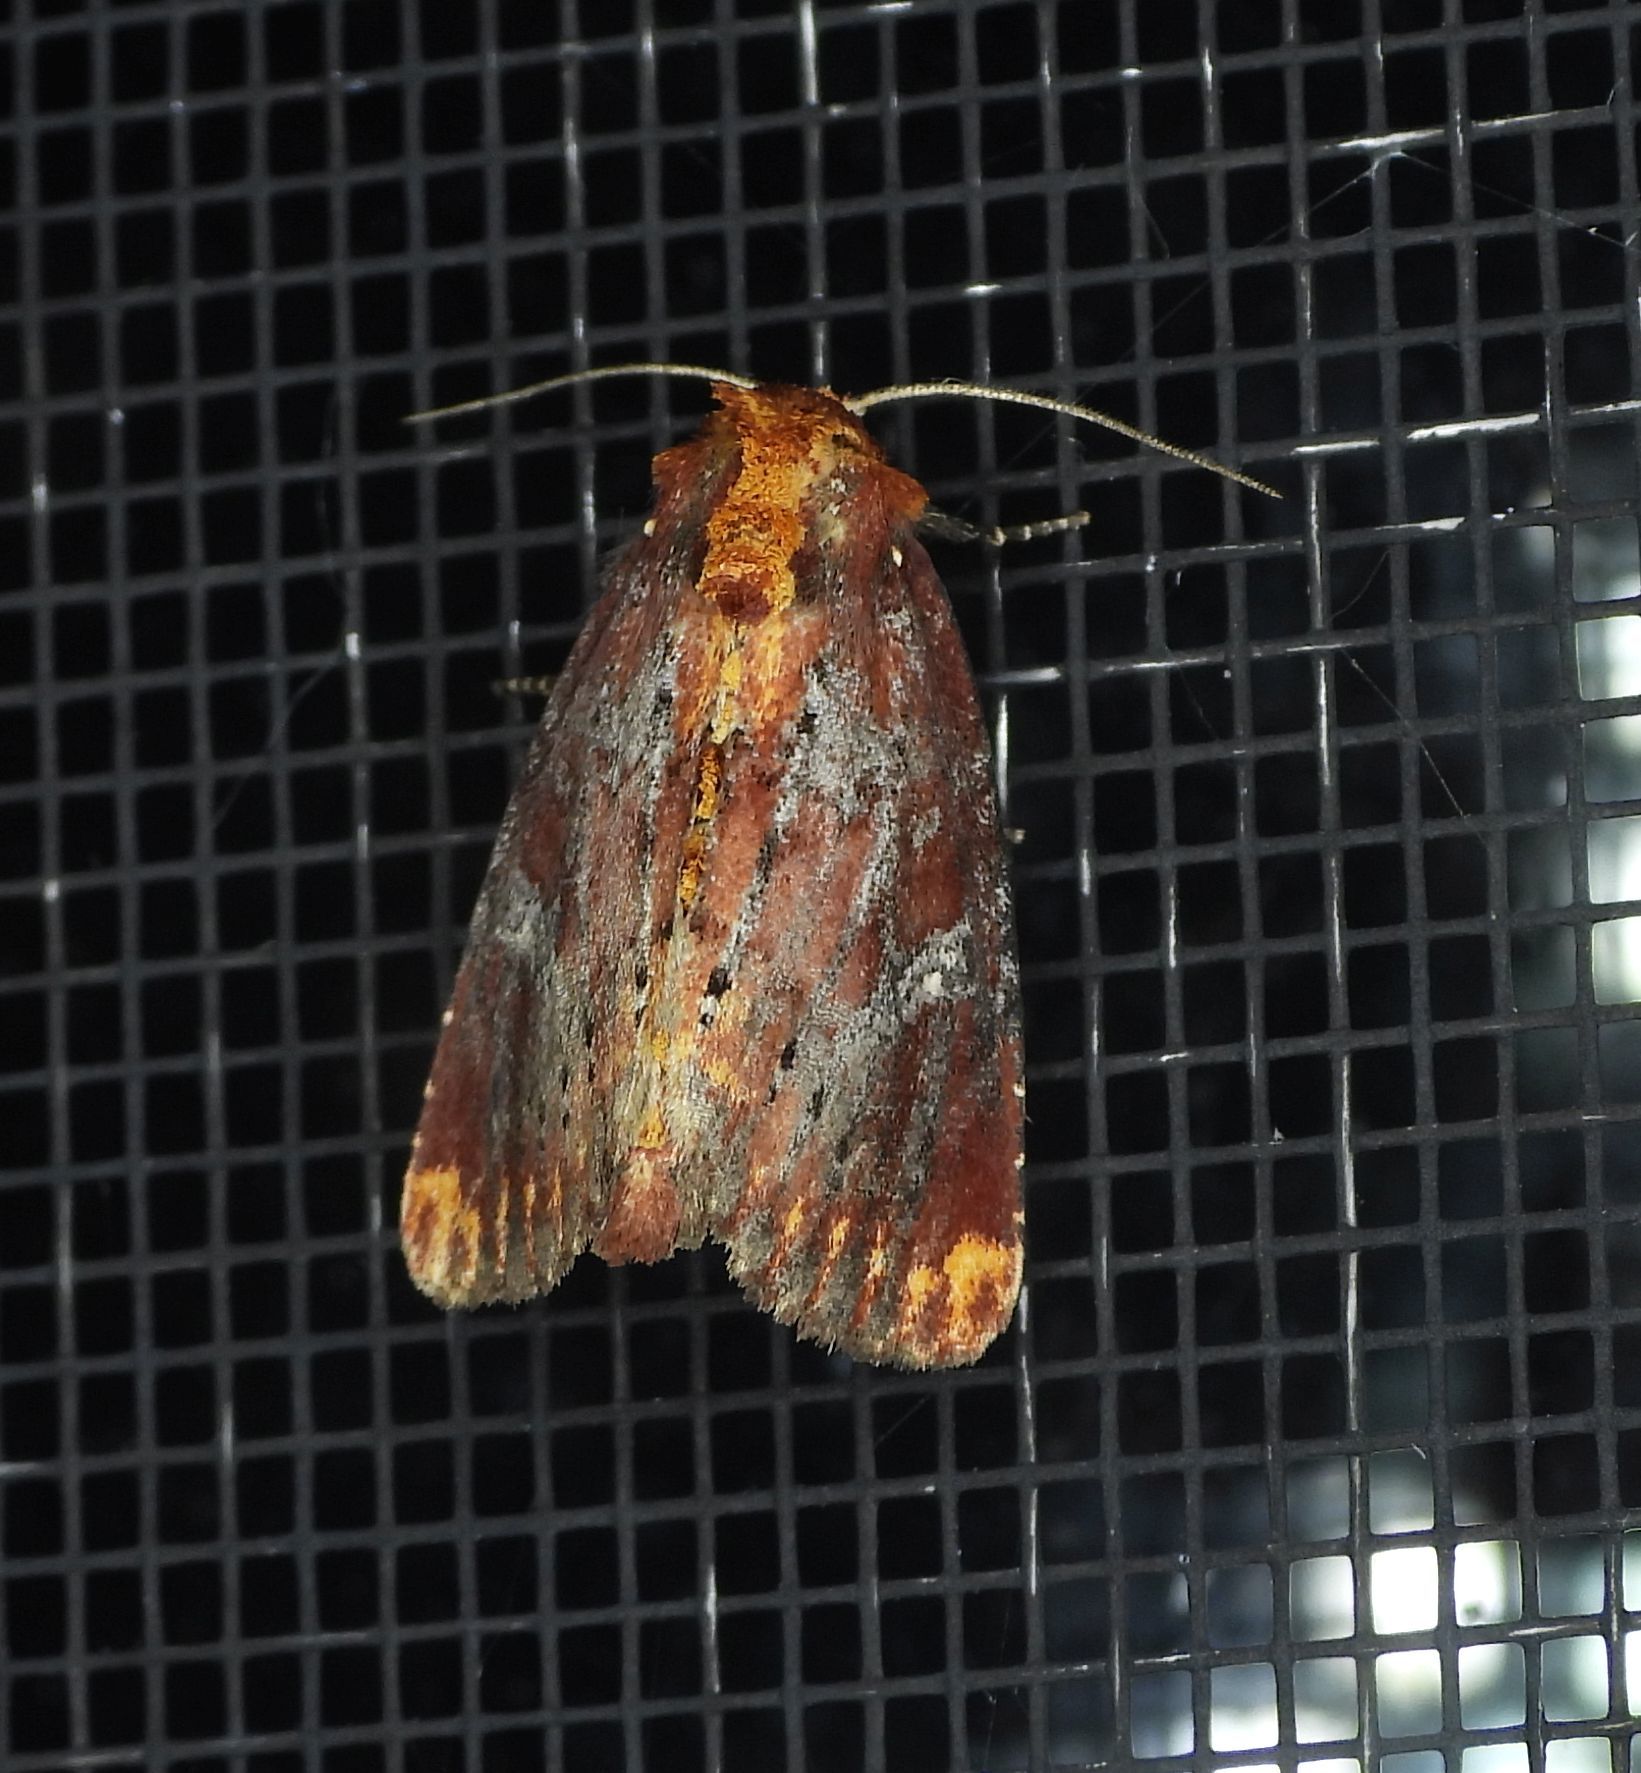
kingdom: Animalia
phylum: Arthropoda
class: Insecta
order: Lepidoptera
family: Noctuidae
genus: Achatodes
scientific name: Achatodes zeae
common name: Elder shoot borer
